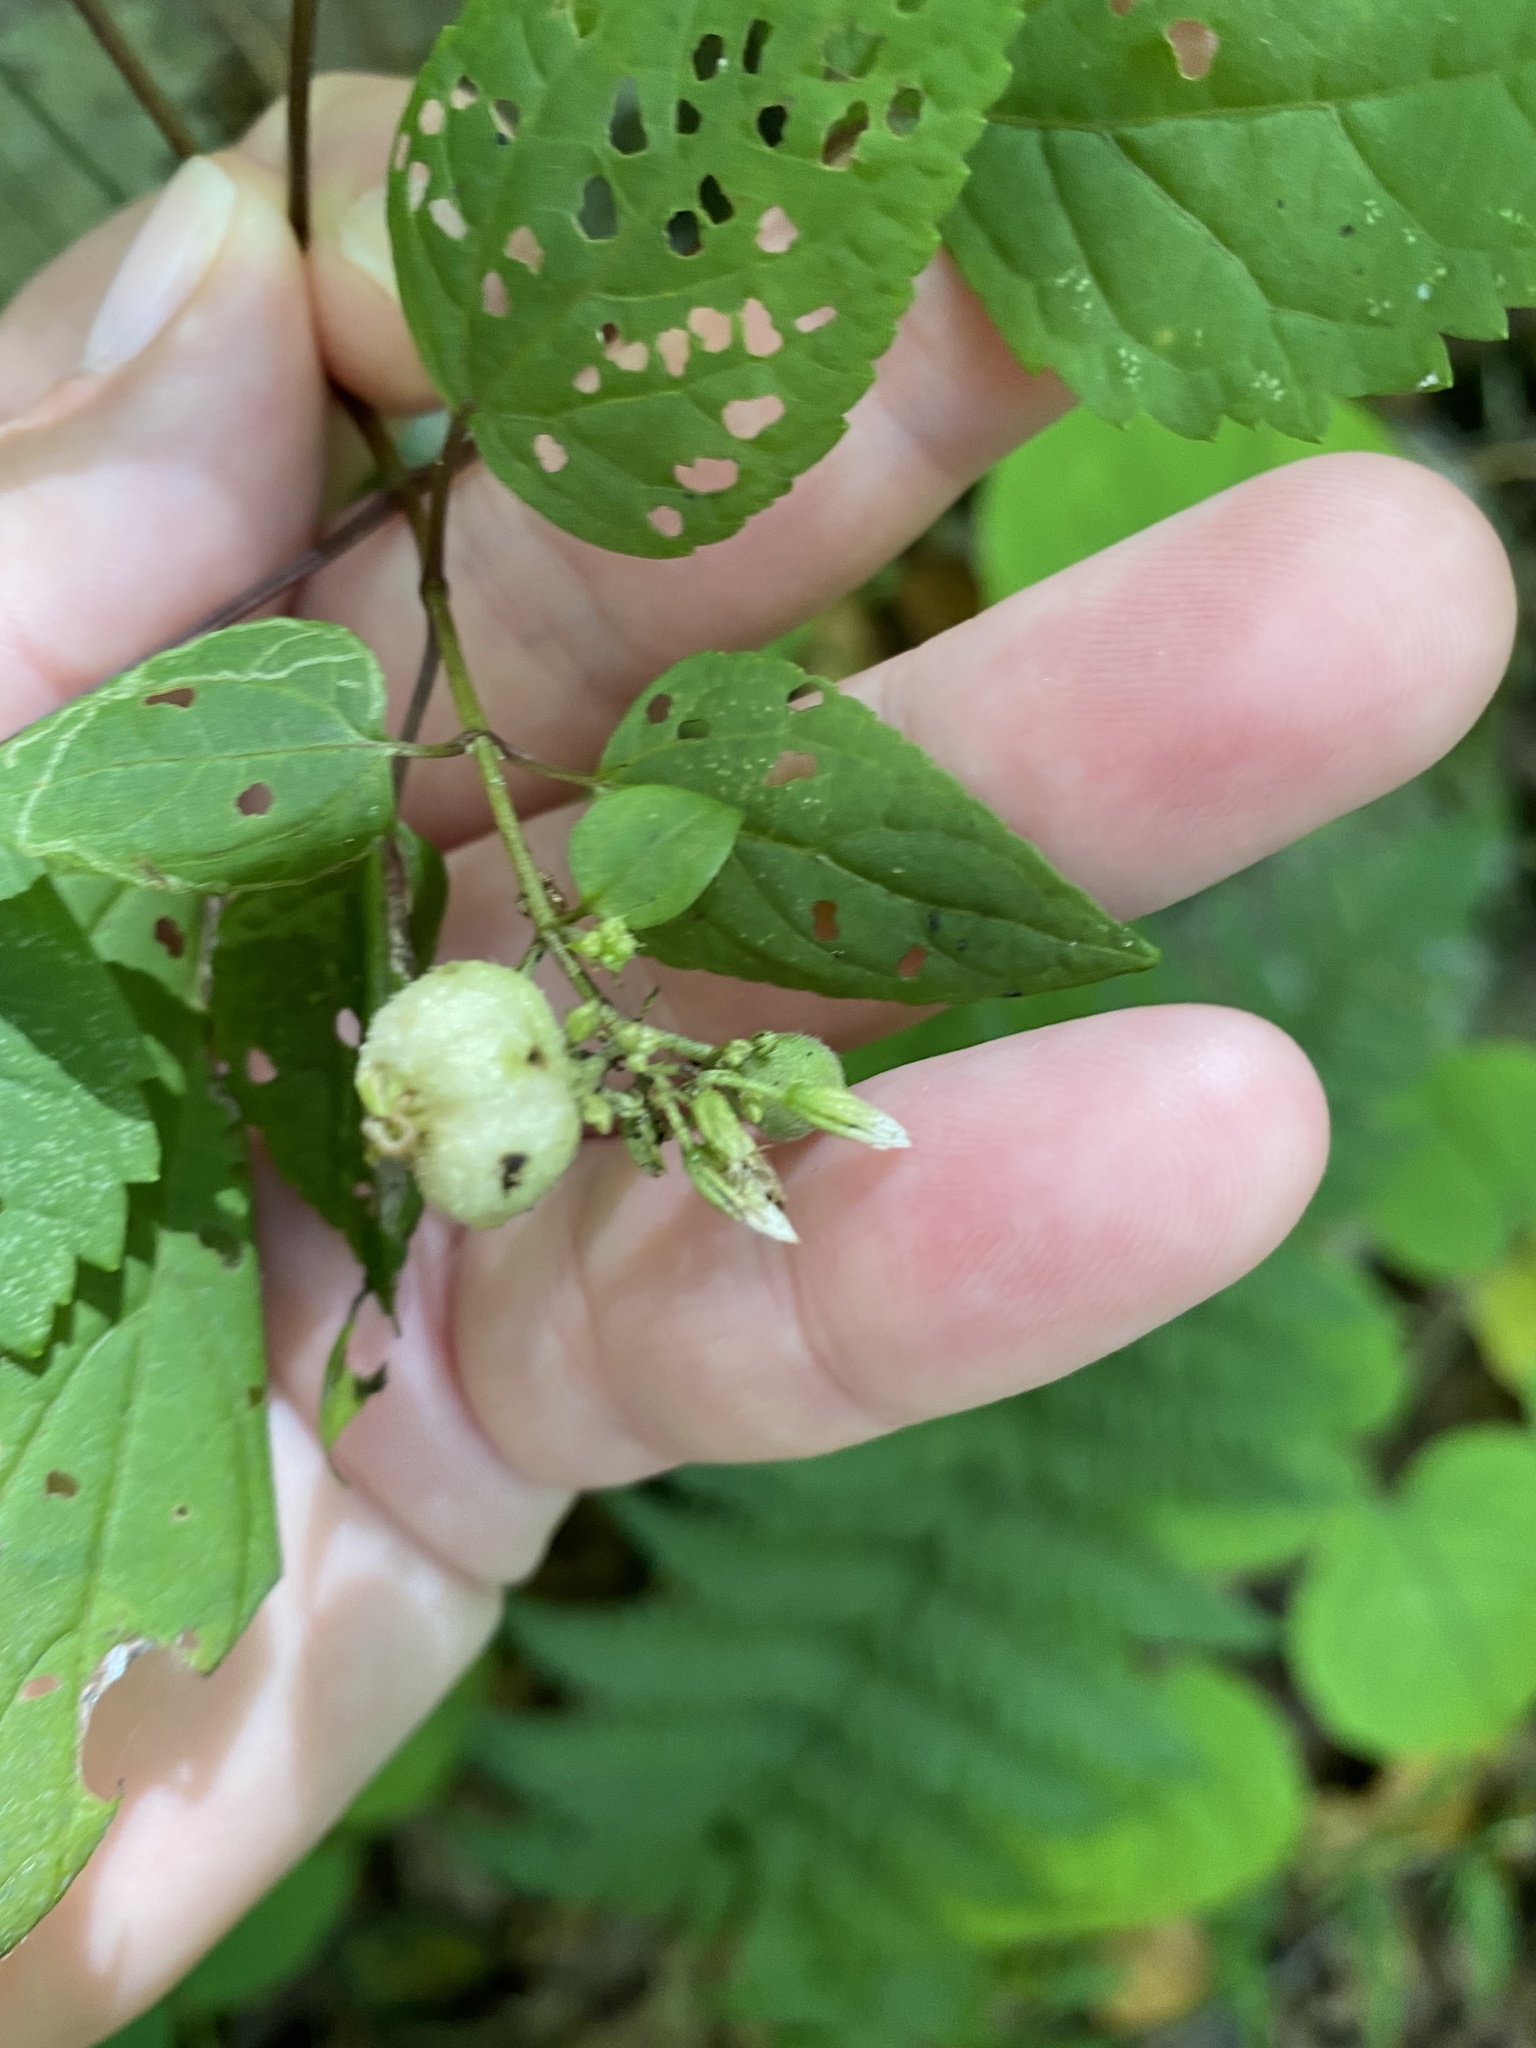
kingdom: Animalia
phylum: Arthropoda
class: Insecta
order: Diptera
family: Cecidomyiidae
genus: Schizomyia
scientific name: Schizomyia eupatoriflorae
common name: Boneset flower gall midge
